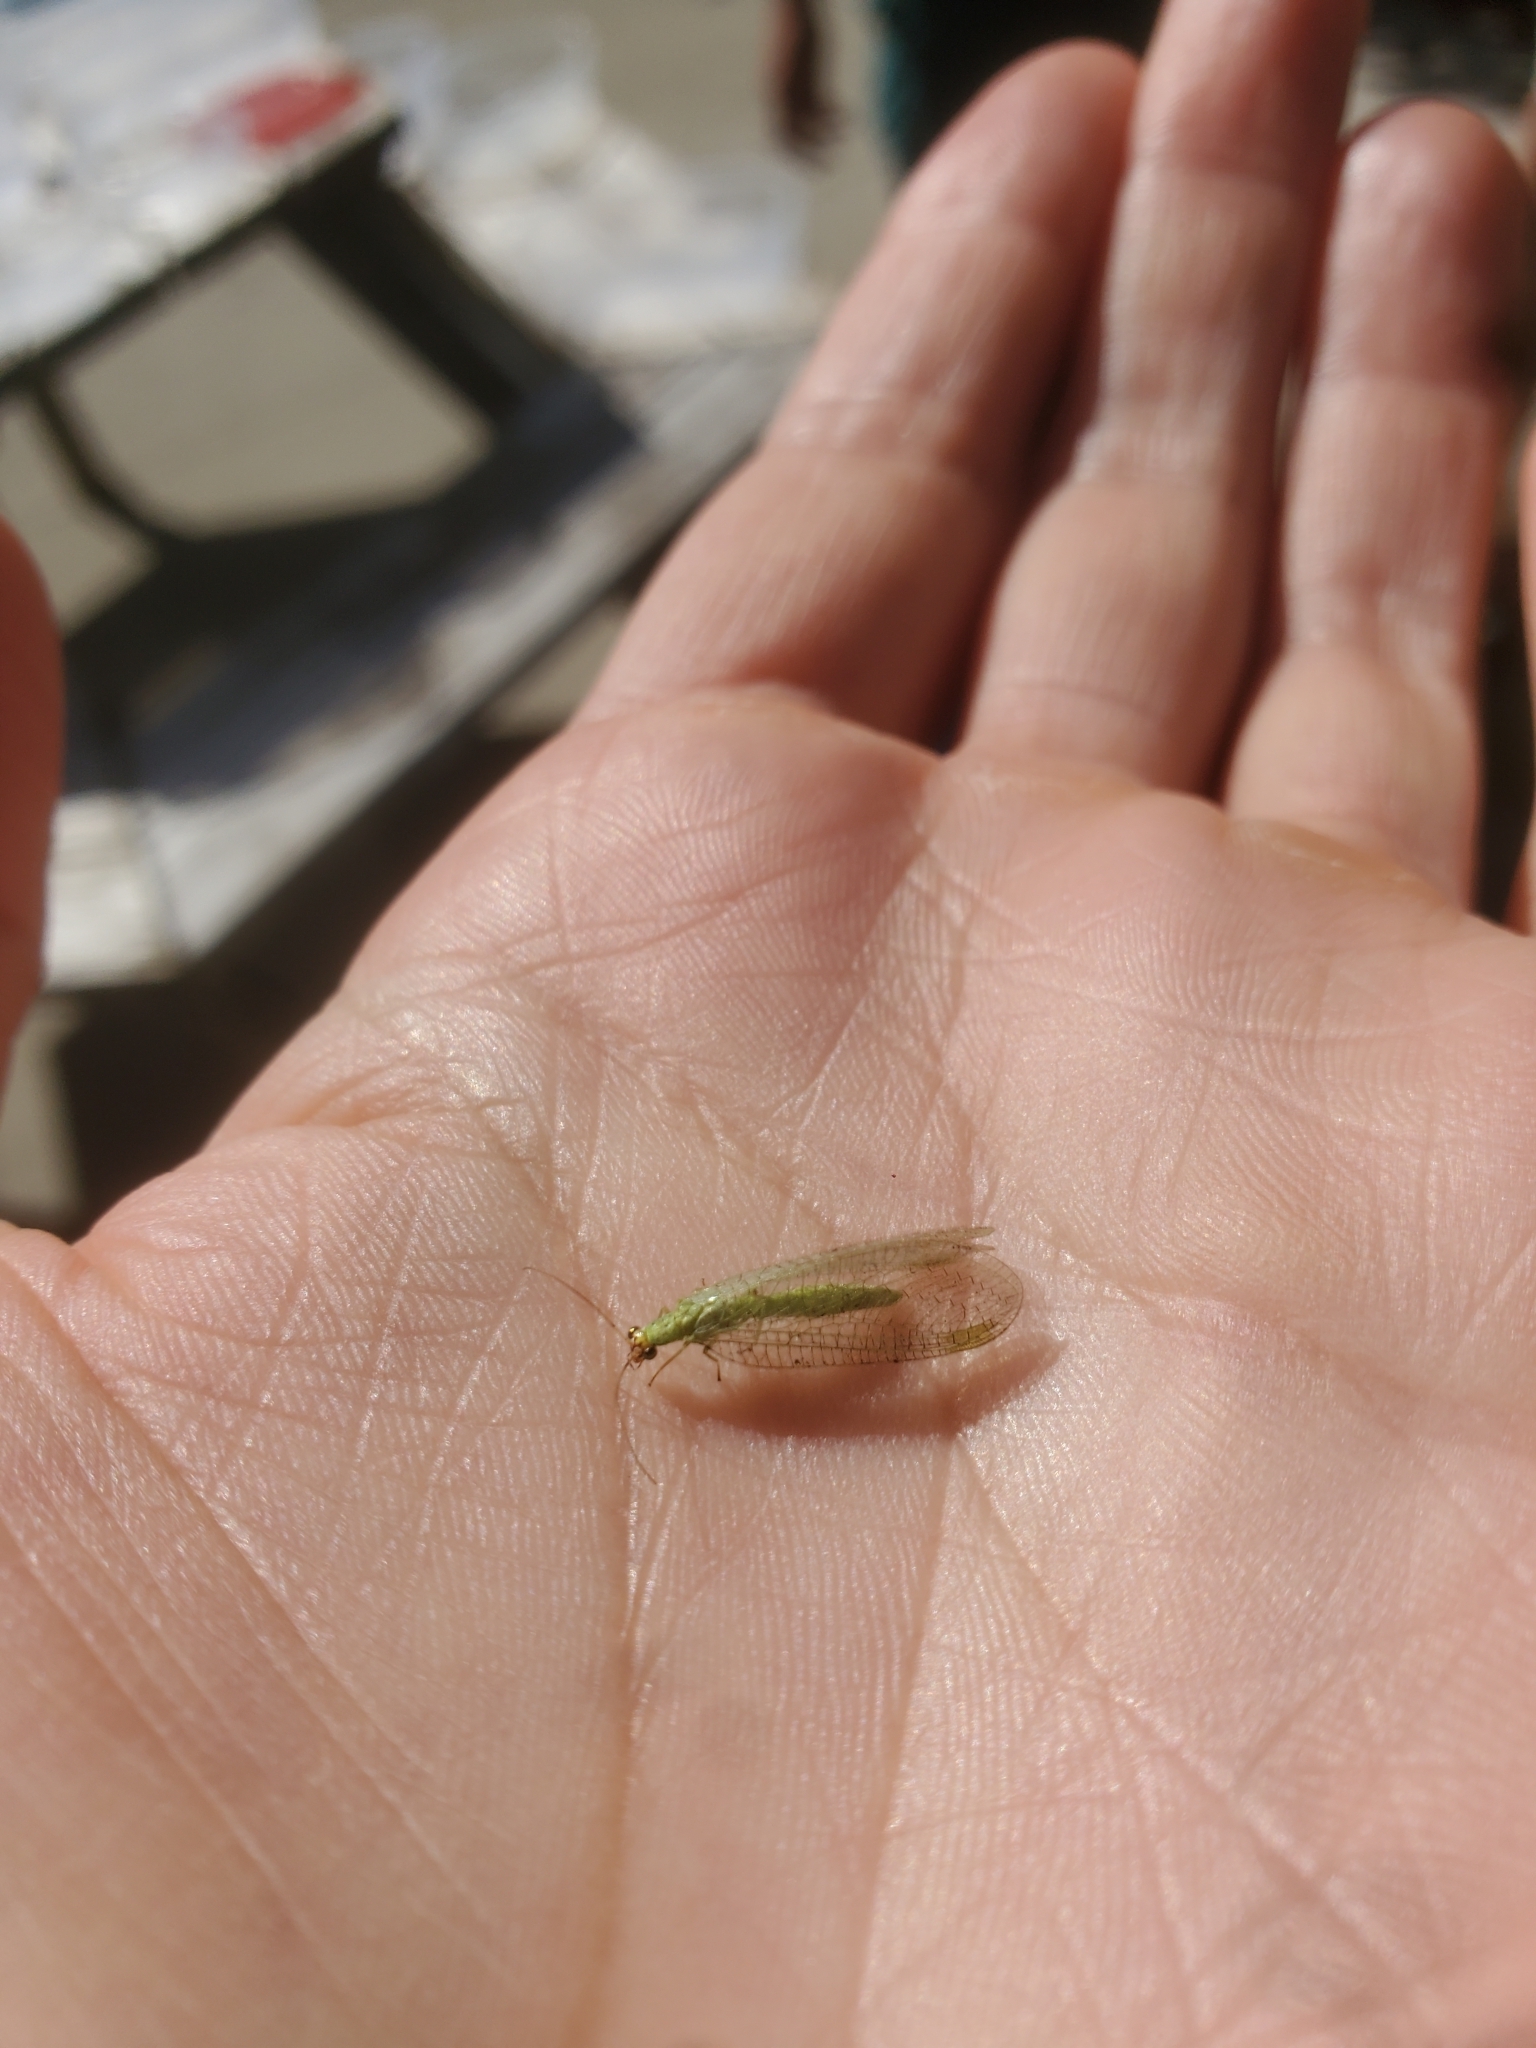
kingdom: Animalia
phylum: Arthropoda
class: Insecta
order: Neuroptera
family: Chrysopidae
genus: Chrysopa
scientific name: Chrysopa oculata
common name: Golden-eyed lacewing
